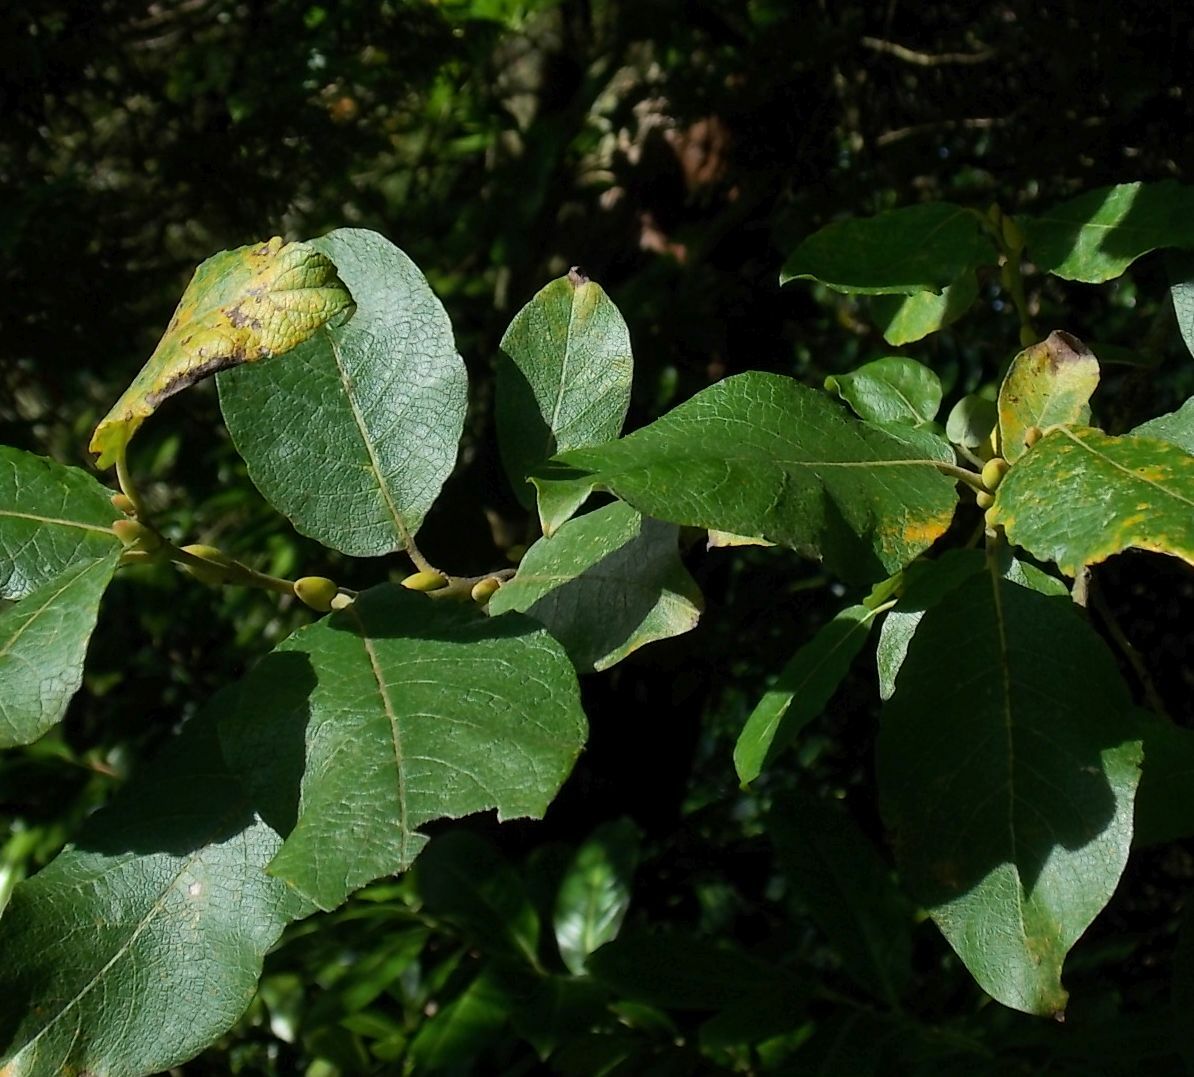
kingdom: Plantae
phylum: Tracheophyta
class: Magnoliopsida
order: Malpighiales
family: Salicaceae
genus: Salix
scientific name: Salix caprea
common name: Goat willow
